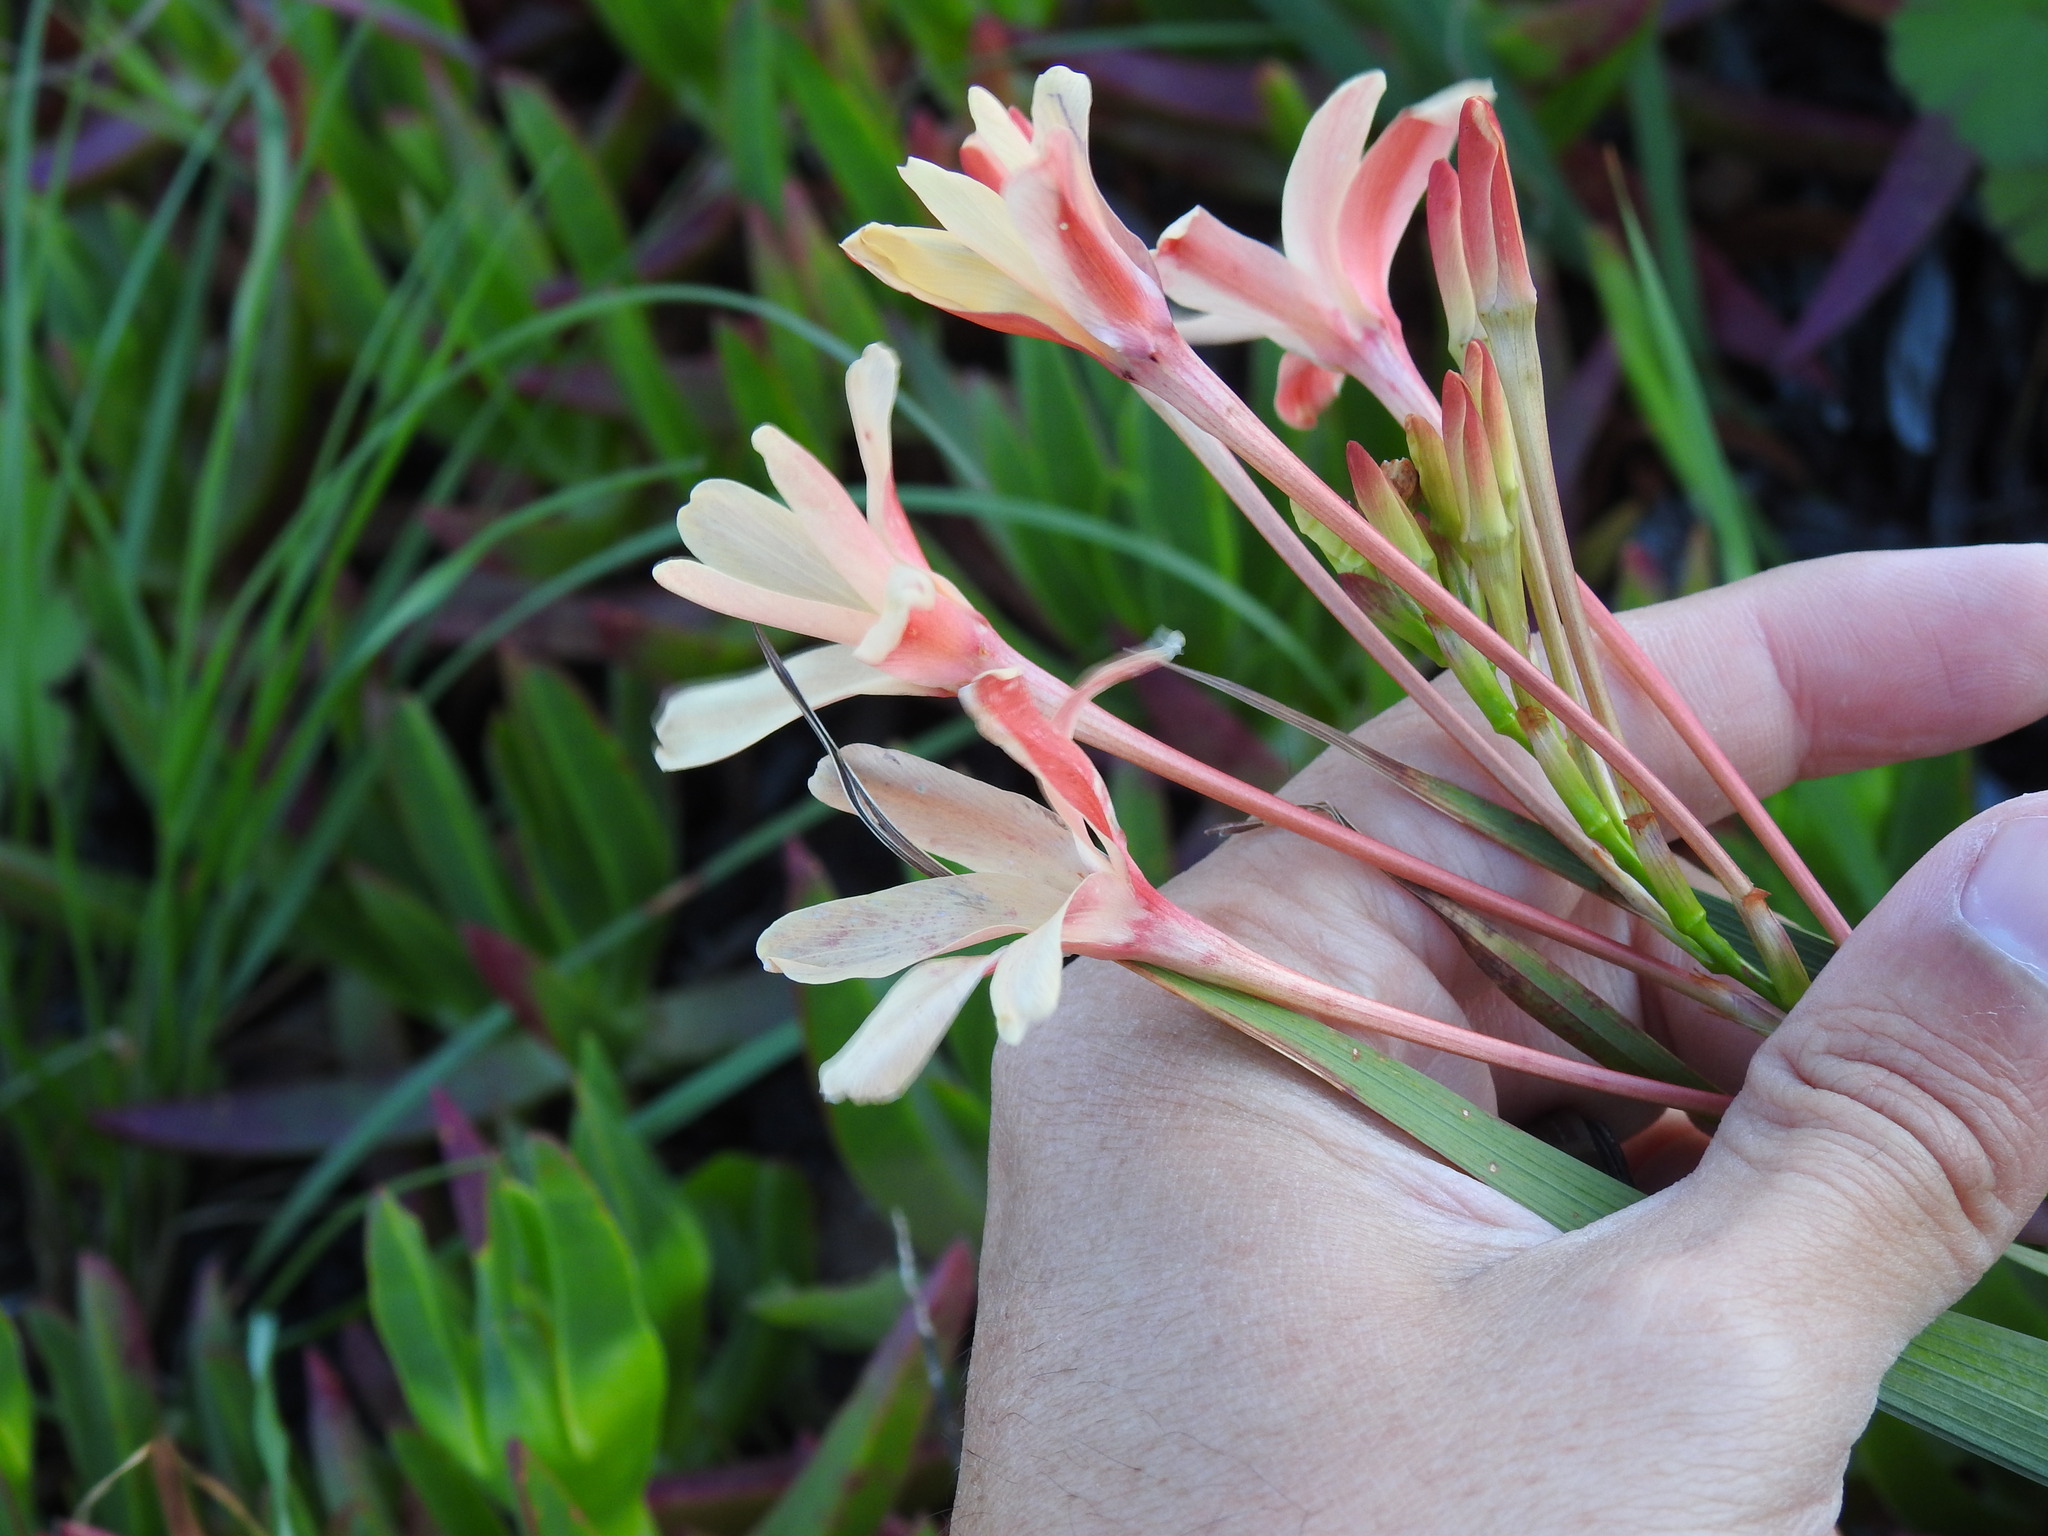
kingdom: Plantae
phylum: Tracheophyta
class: Liliopsida
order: Asparagales
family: Iridaceae
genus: Ixia
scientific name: Ixia paniculata
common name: Tubular corn-lily
